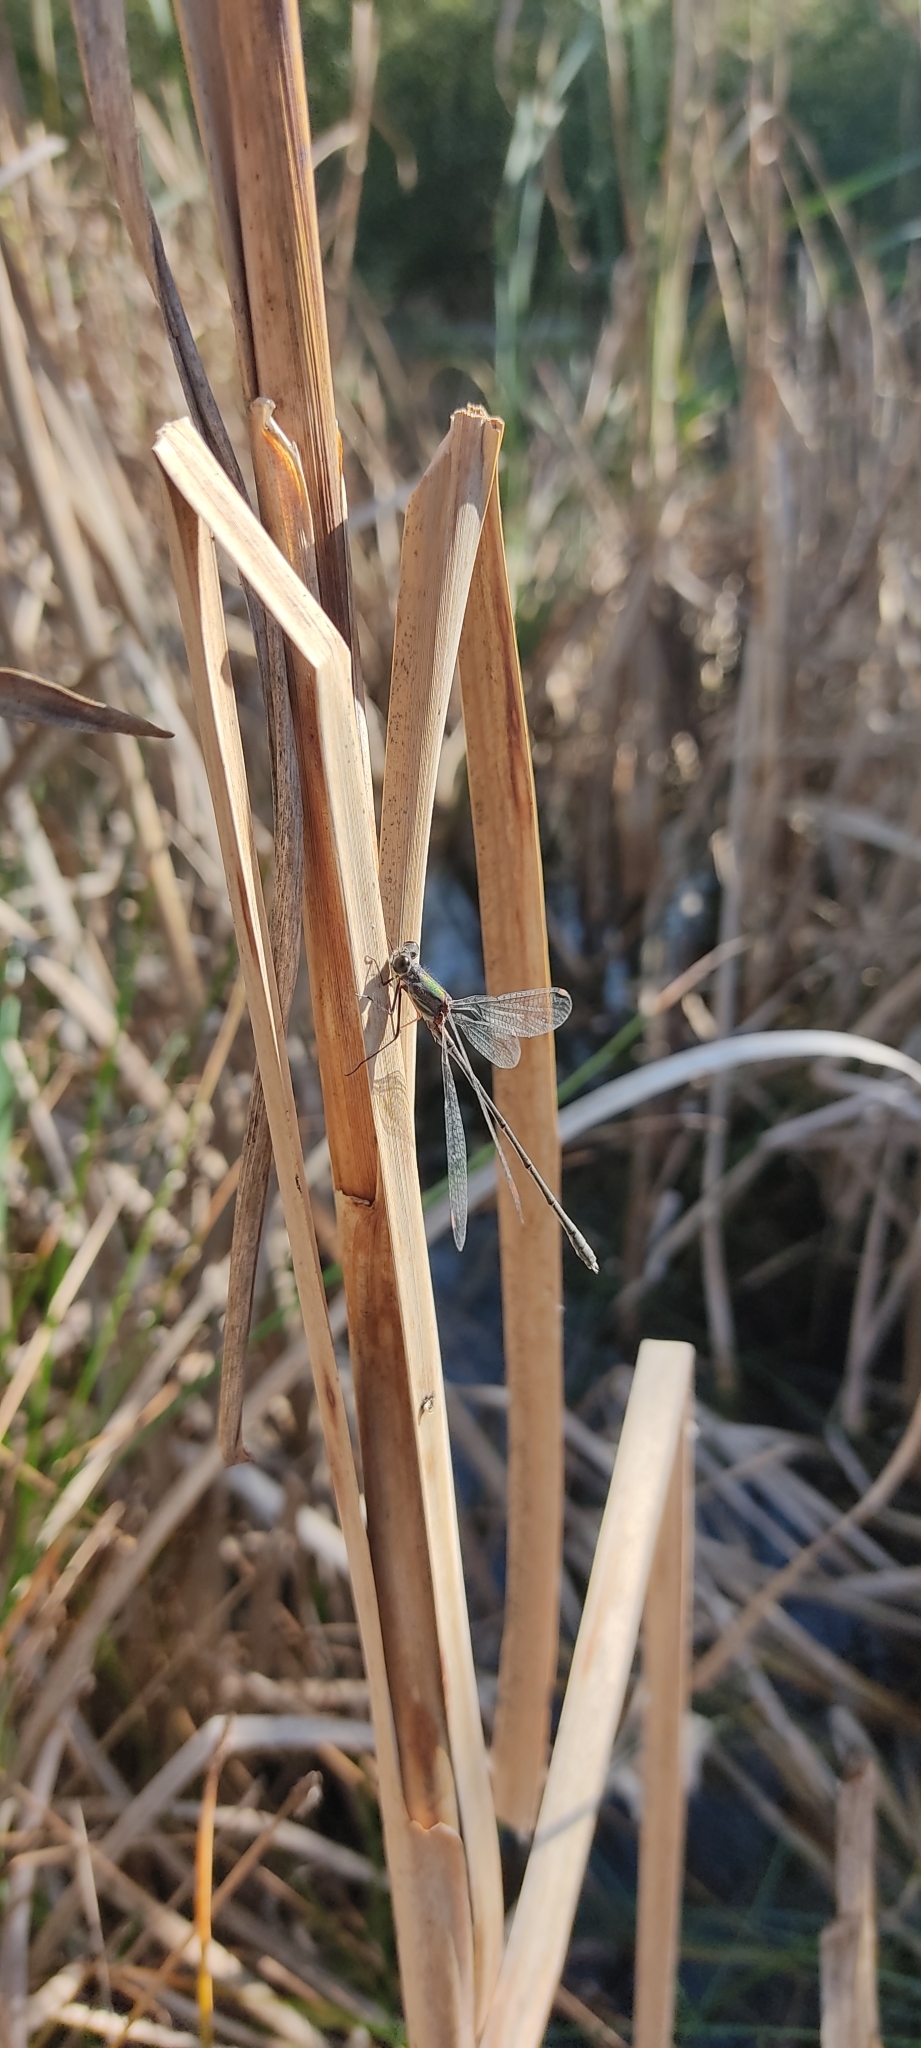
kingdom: Animalia
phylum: Arthropoda
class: Insecta
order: Odonata
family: Lestidae
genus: Chalcolestes
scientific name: Chalcolestes viridis
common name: Green emerald damselfly
